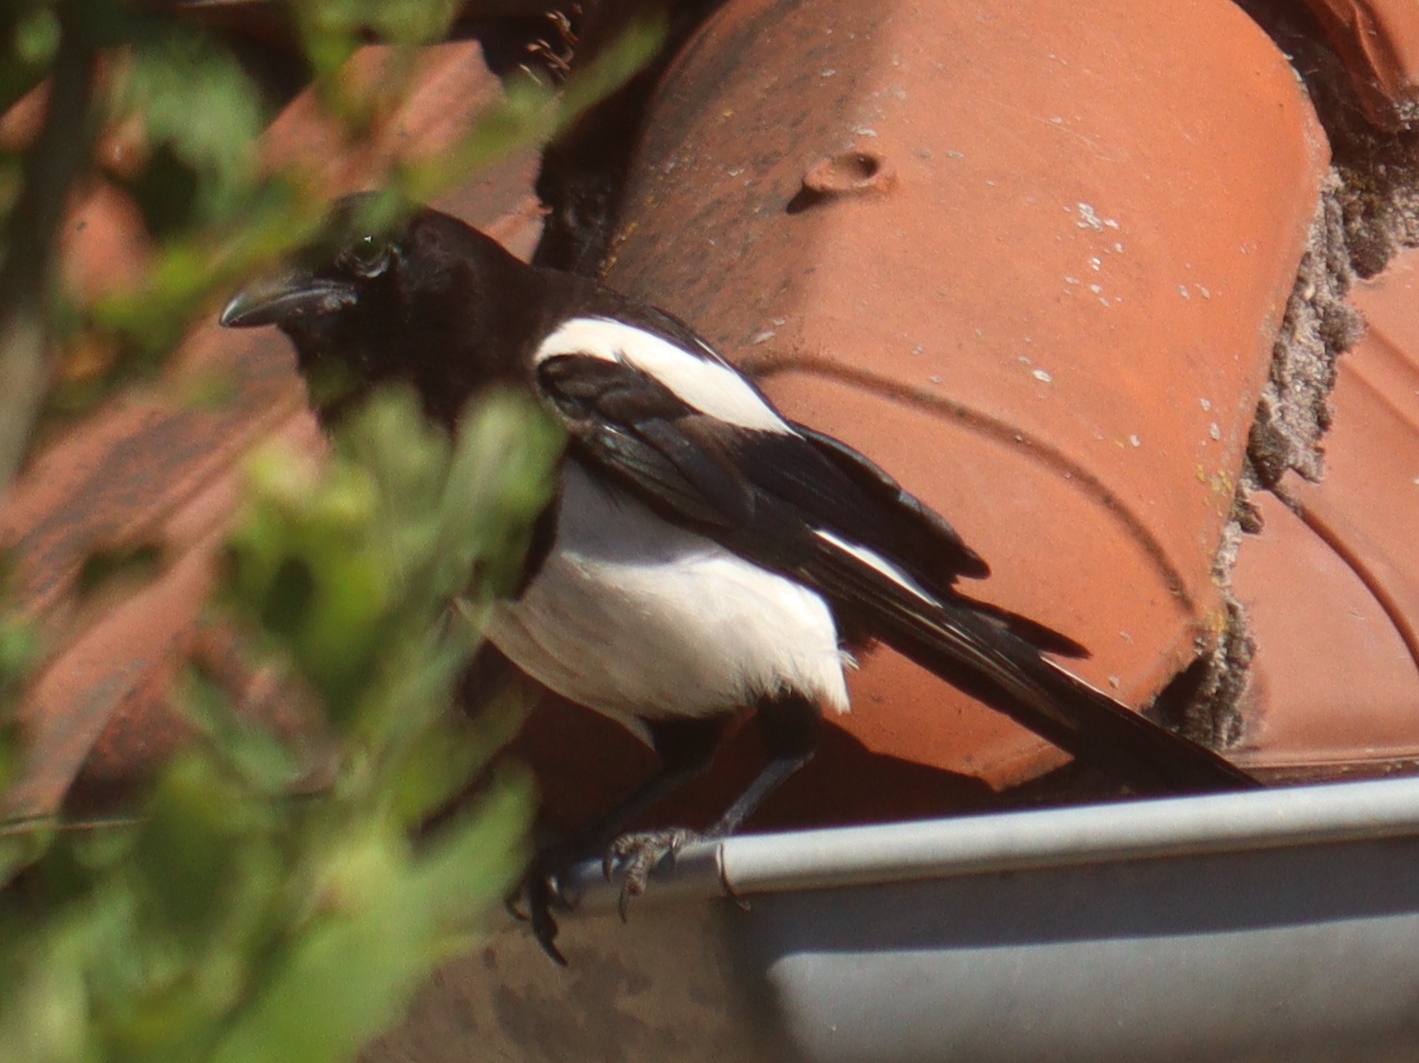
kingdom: Animalia
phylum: Chordata
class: Aves
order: Passeriformes
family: Corvidae
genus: Pica
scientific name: Pica pica
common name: Eurasian magpie
